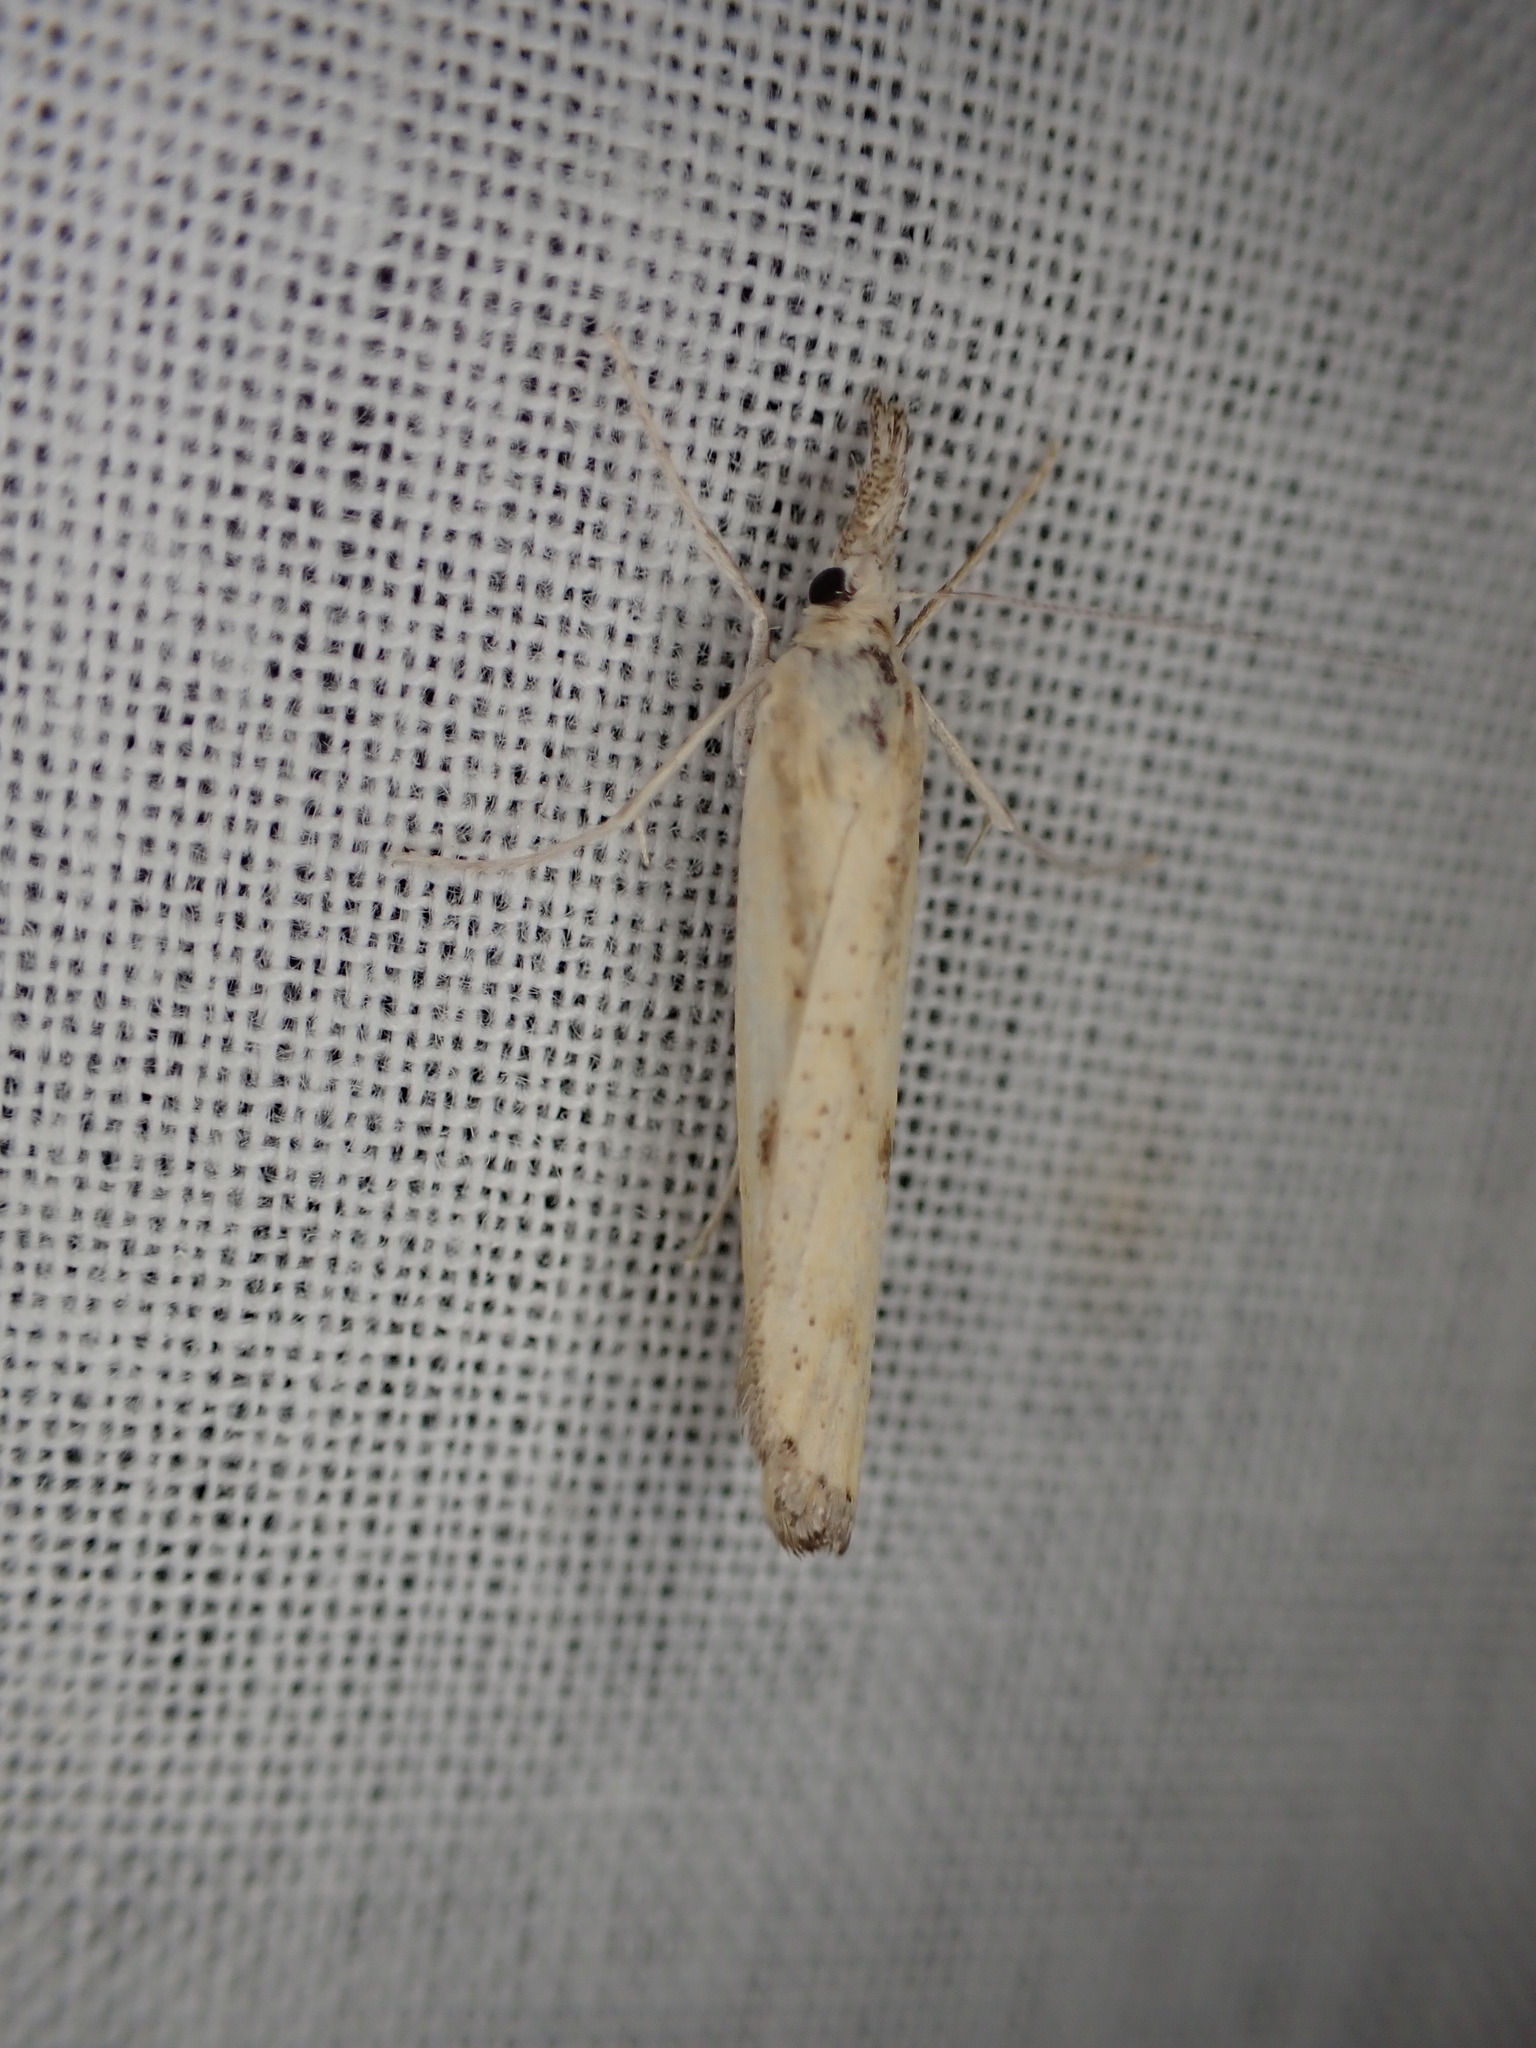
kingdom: Animalia
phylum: Arthropoda
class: Insecta
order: Lepidoptera
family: Crambidae
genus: Agriphila
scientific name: Agriphila inquinatella
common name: Barred grass-veneer
